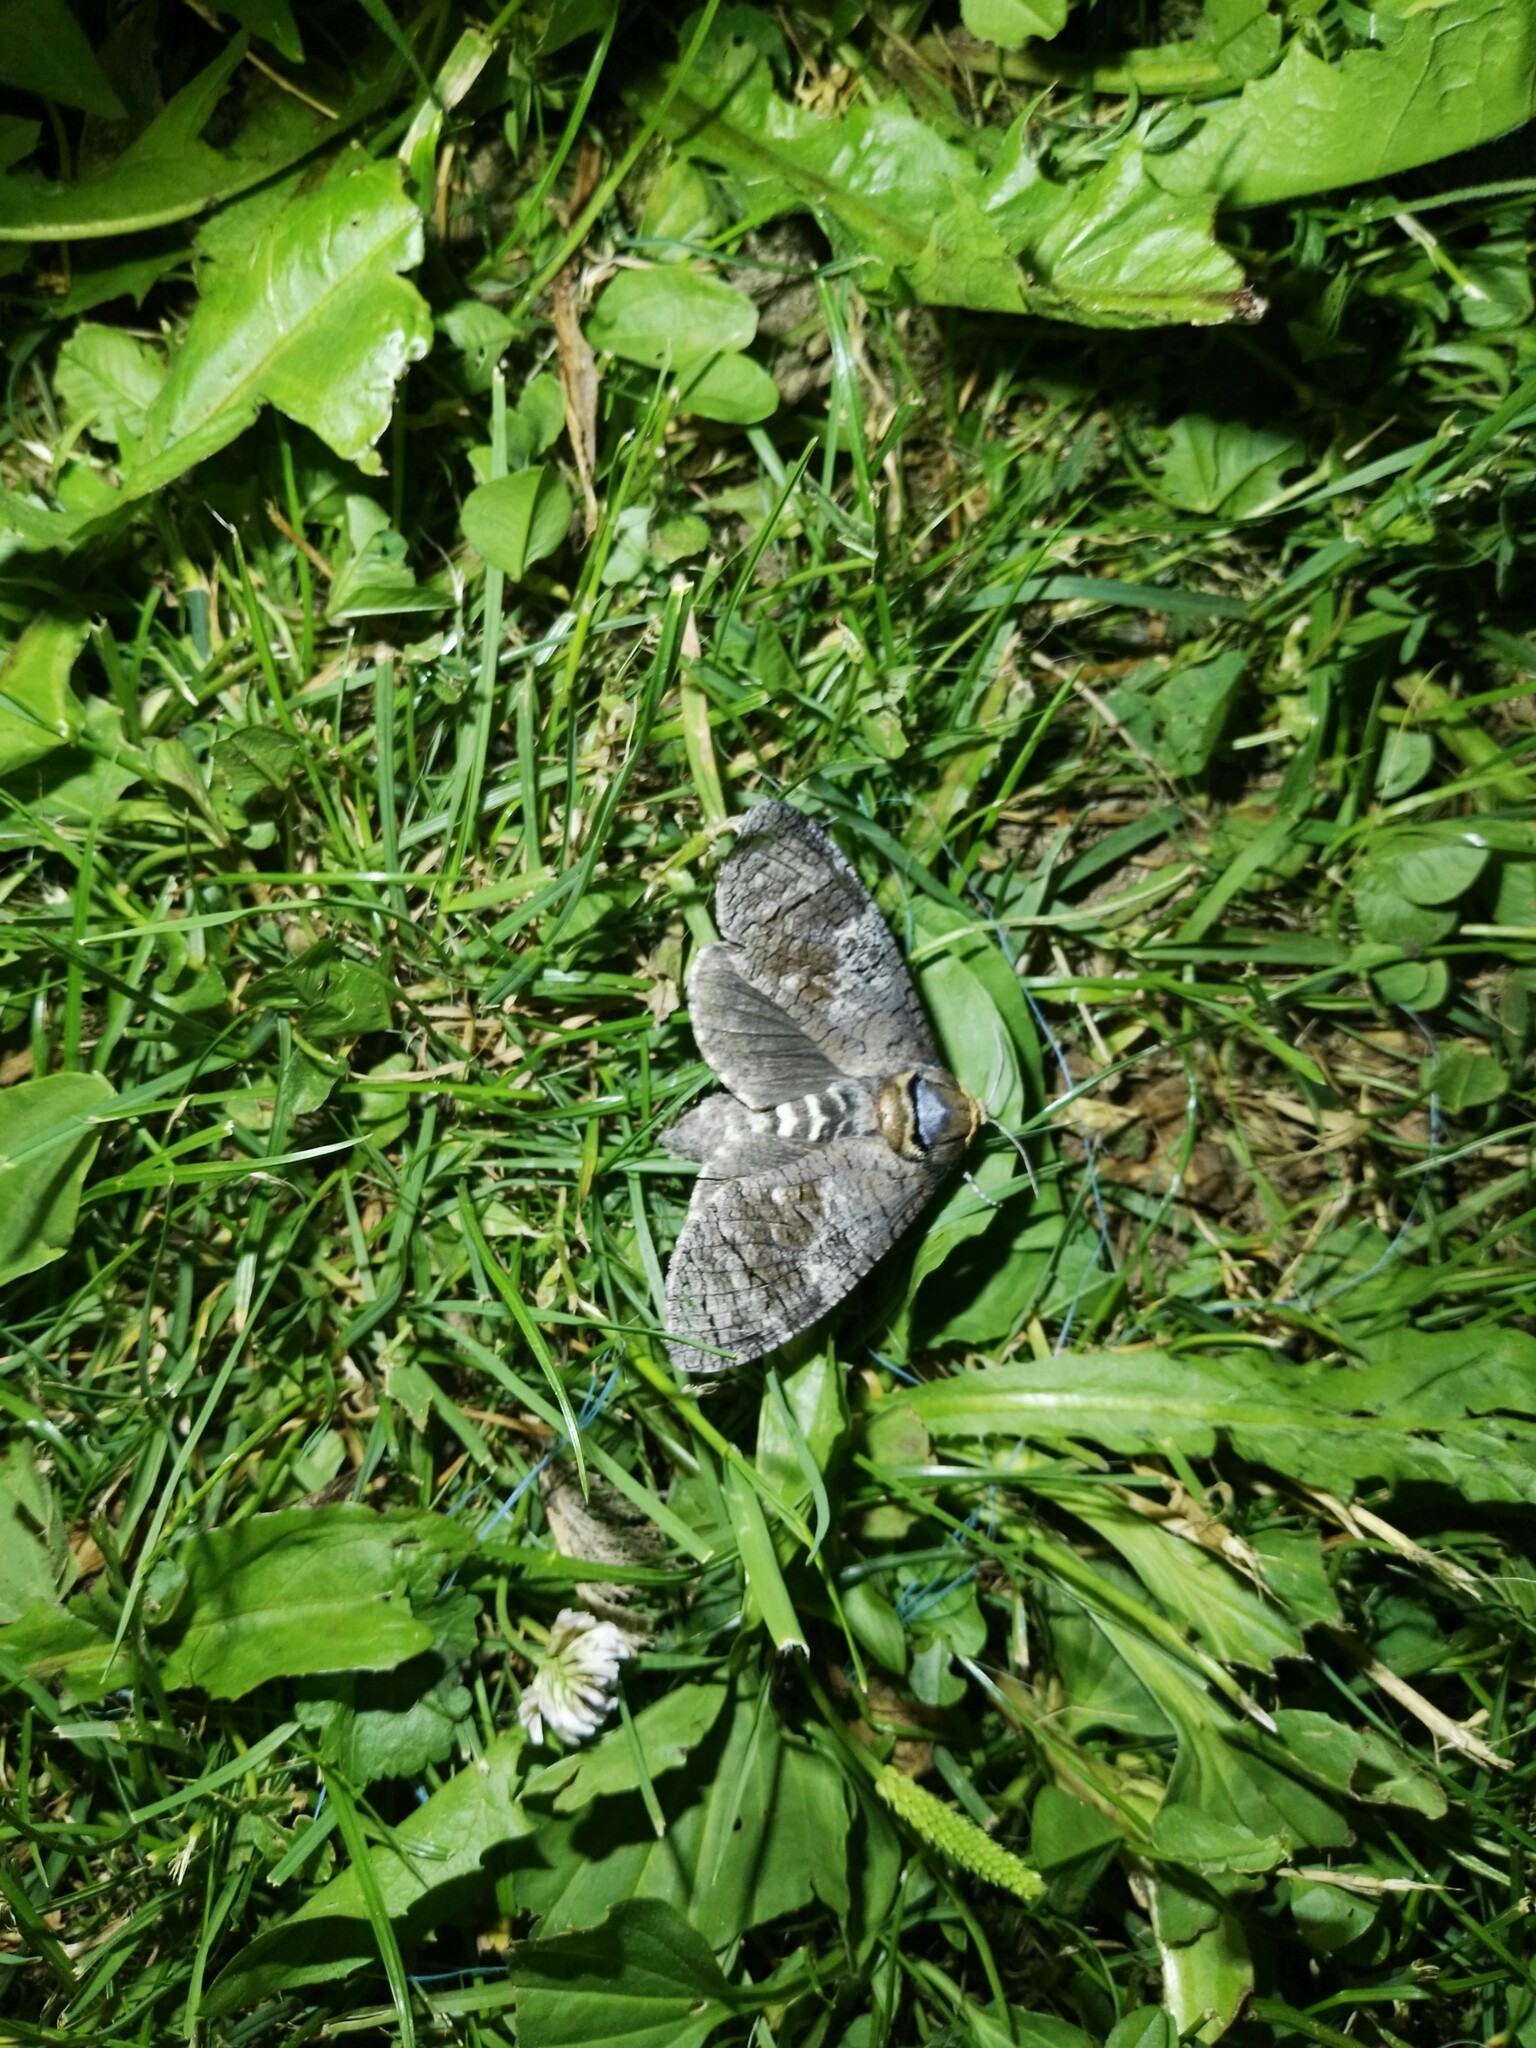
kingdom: Animalia
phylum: Arthropoda
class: Insecta
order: Lepidoptera
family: Cossidae
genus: Cossus
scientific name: Cossus cossus
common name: Goat moth
